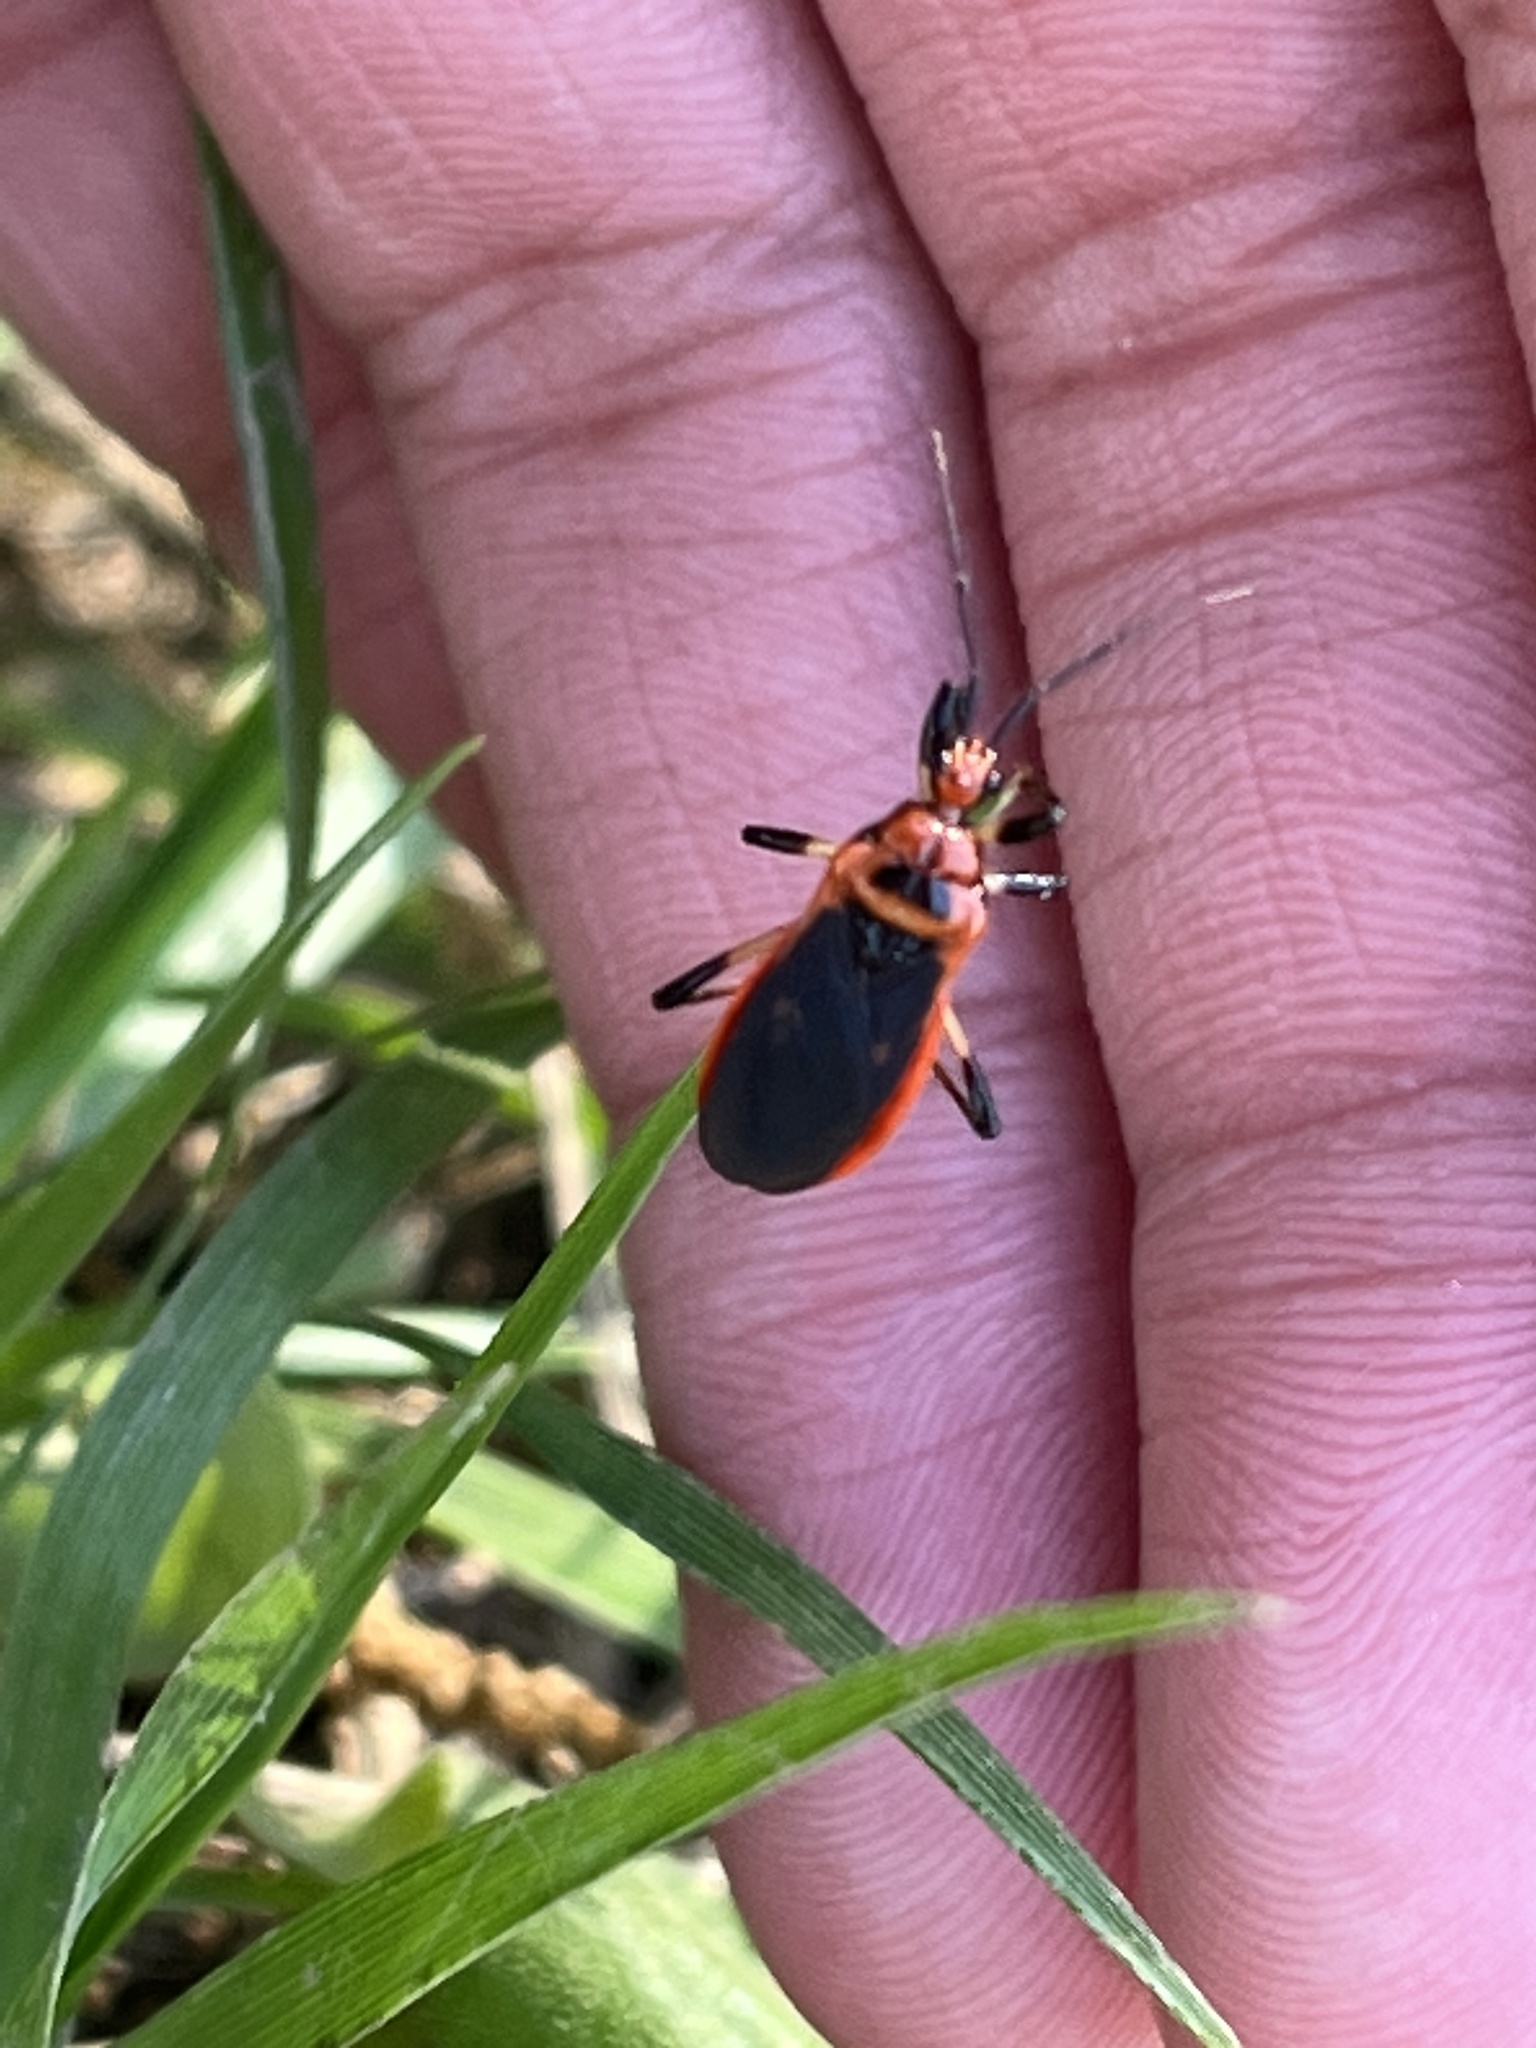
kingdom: Animalia
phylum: Arthropoda
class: Insecta
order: Hemiptera
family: Reduviidae
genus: Rhiginia
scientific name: Rhiginia cruciata
